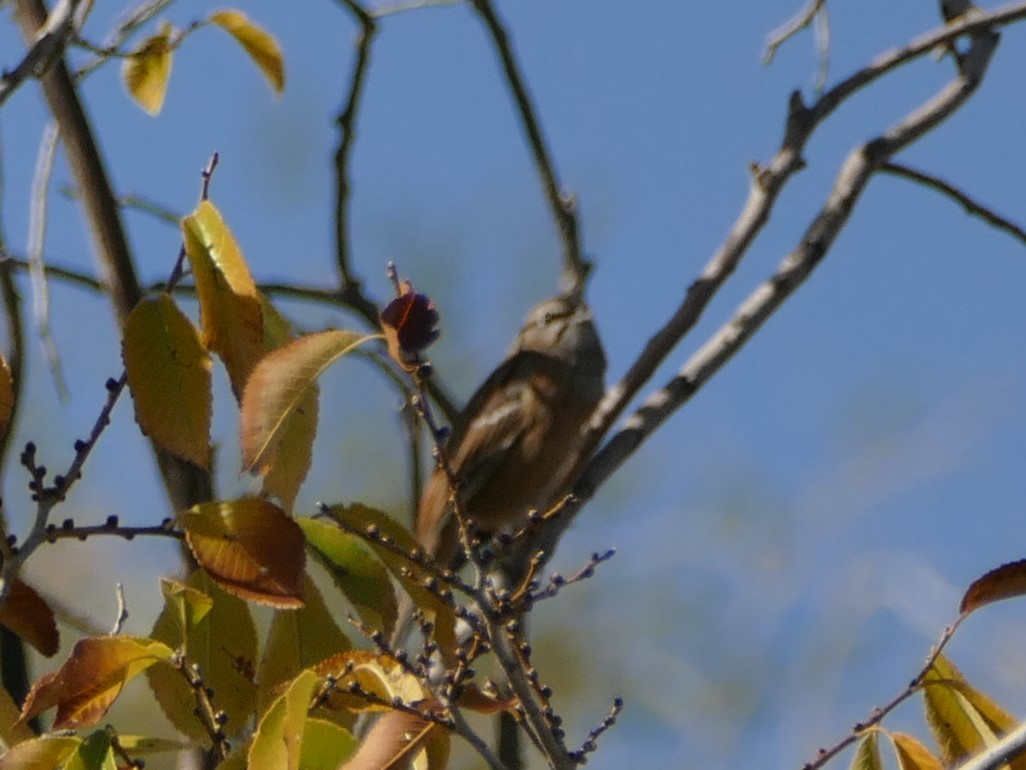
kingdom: Animalia
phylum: Chordata
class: Aves
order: Passeriformes
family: Emberizidae
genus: Emberiza
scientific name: Emberiza cia
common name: Rock bunting
